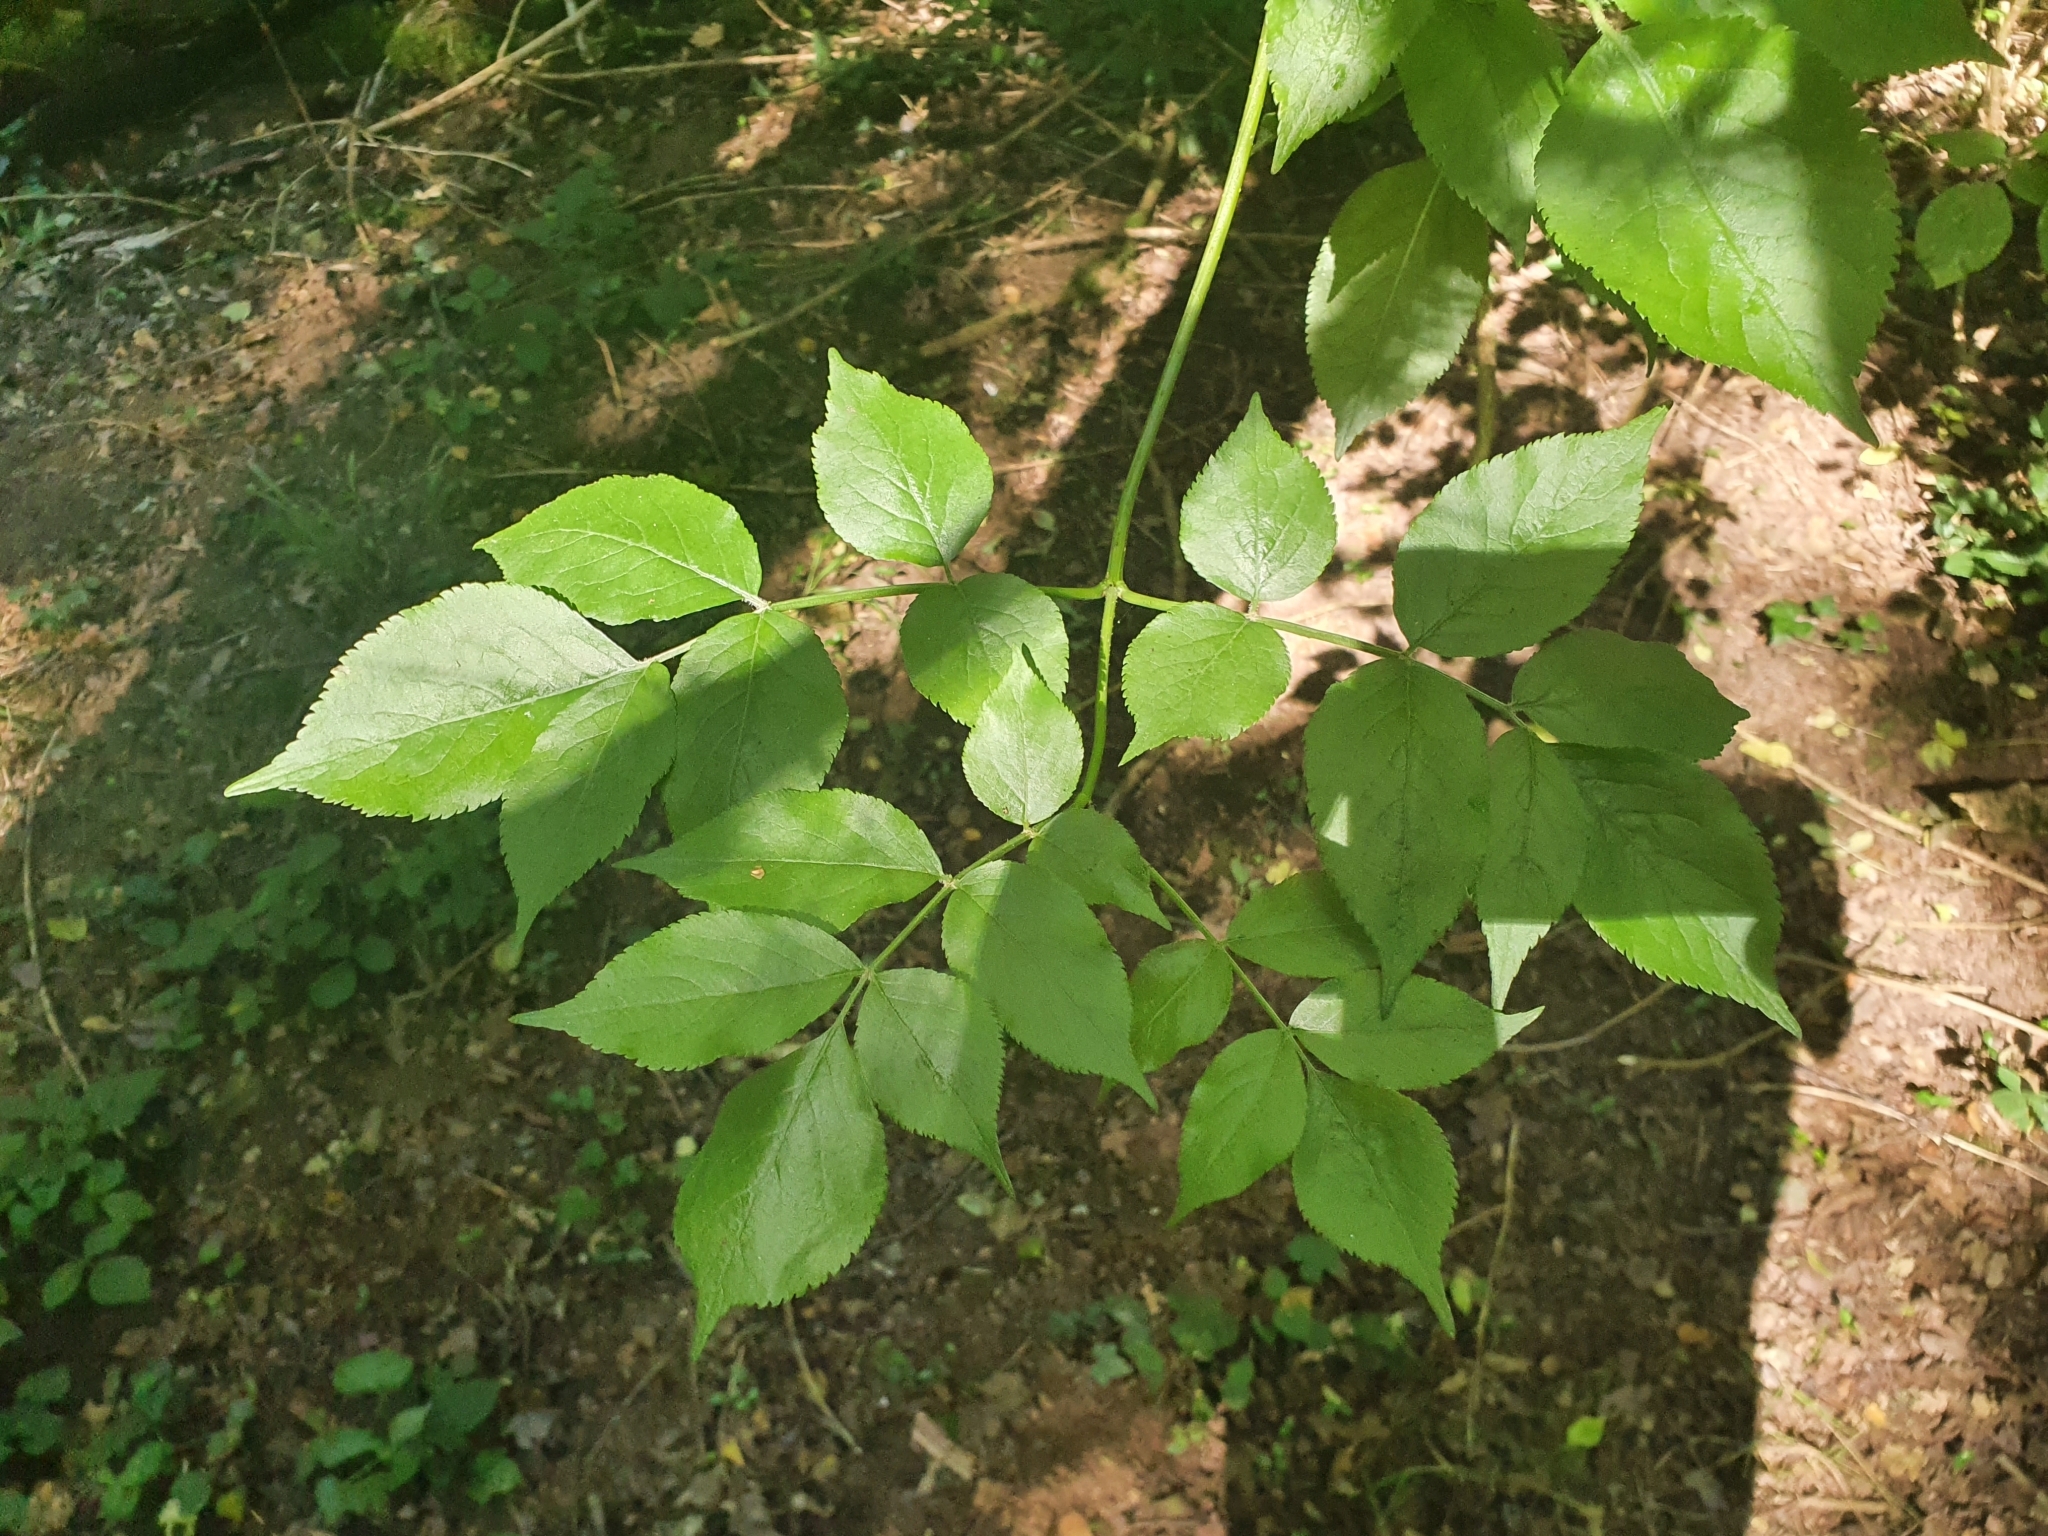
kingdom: Plantae
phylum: Tracheophyta
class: Magnoliopsida
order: Dipsacales
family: Viburnaceae
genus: Sambucus
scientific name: Sambucus nigra
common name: Elder
